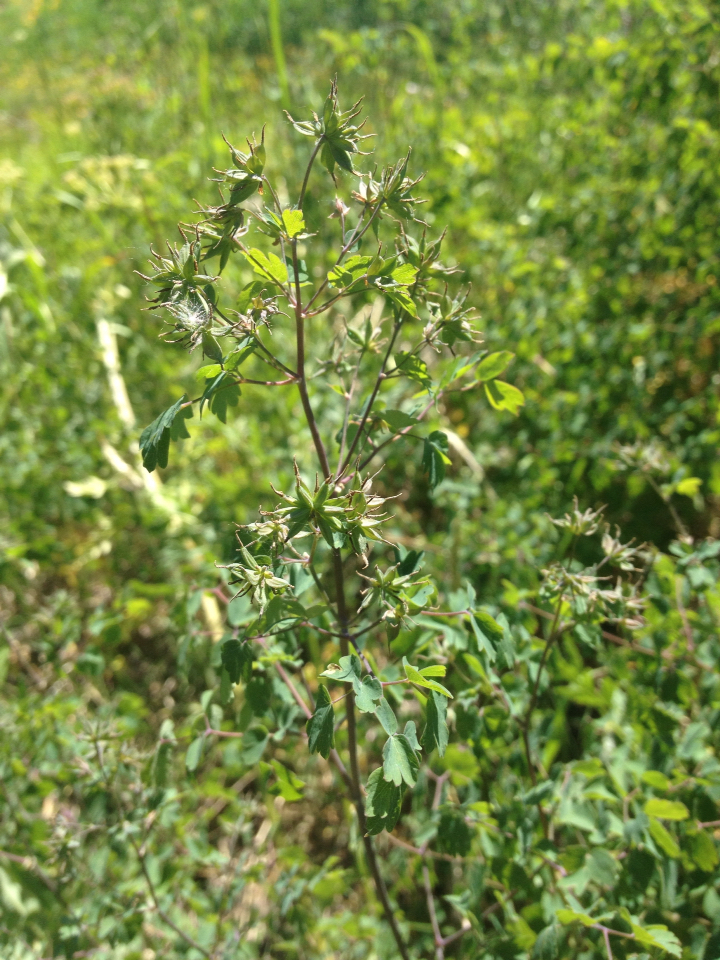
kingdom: Plantae
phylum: Tracheophyta
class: Magnoliopsida
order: Ranunculales
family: Ranunculaceae
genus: Thalictrum
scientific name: Thalictrum fendleri
